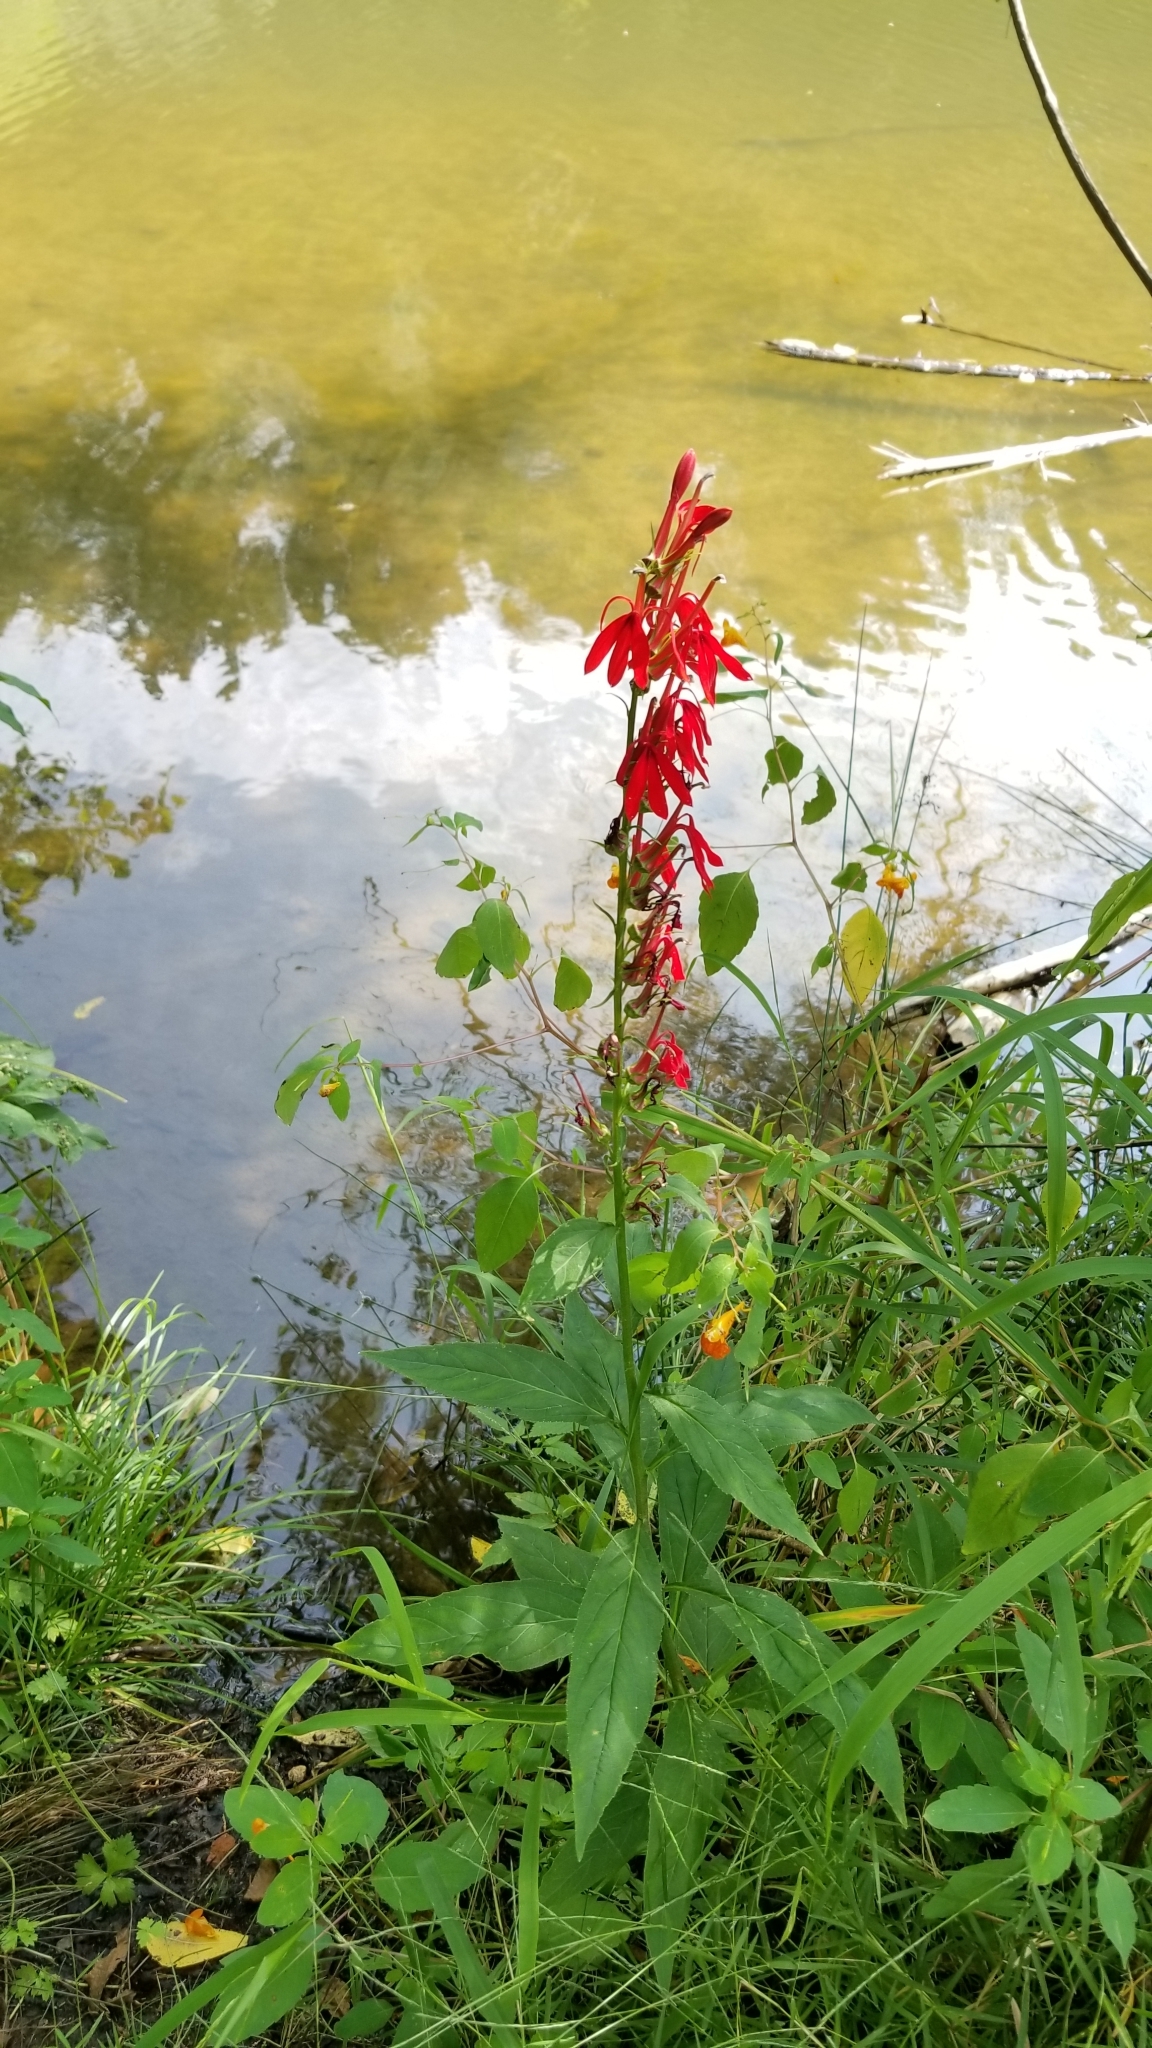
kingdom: Plantae
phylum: Tracheophyta
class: Magnoliopsida
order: Asterales
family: Campanulaceae
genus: Lobelia
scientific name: Lobelia cardinalis
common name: Cardinal flower
